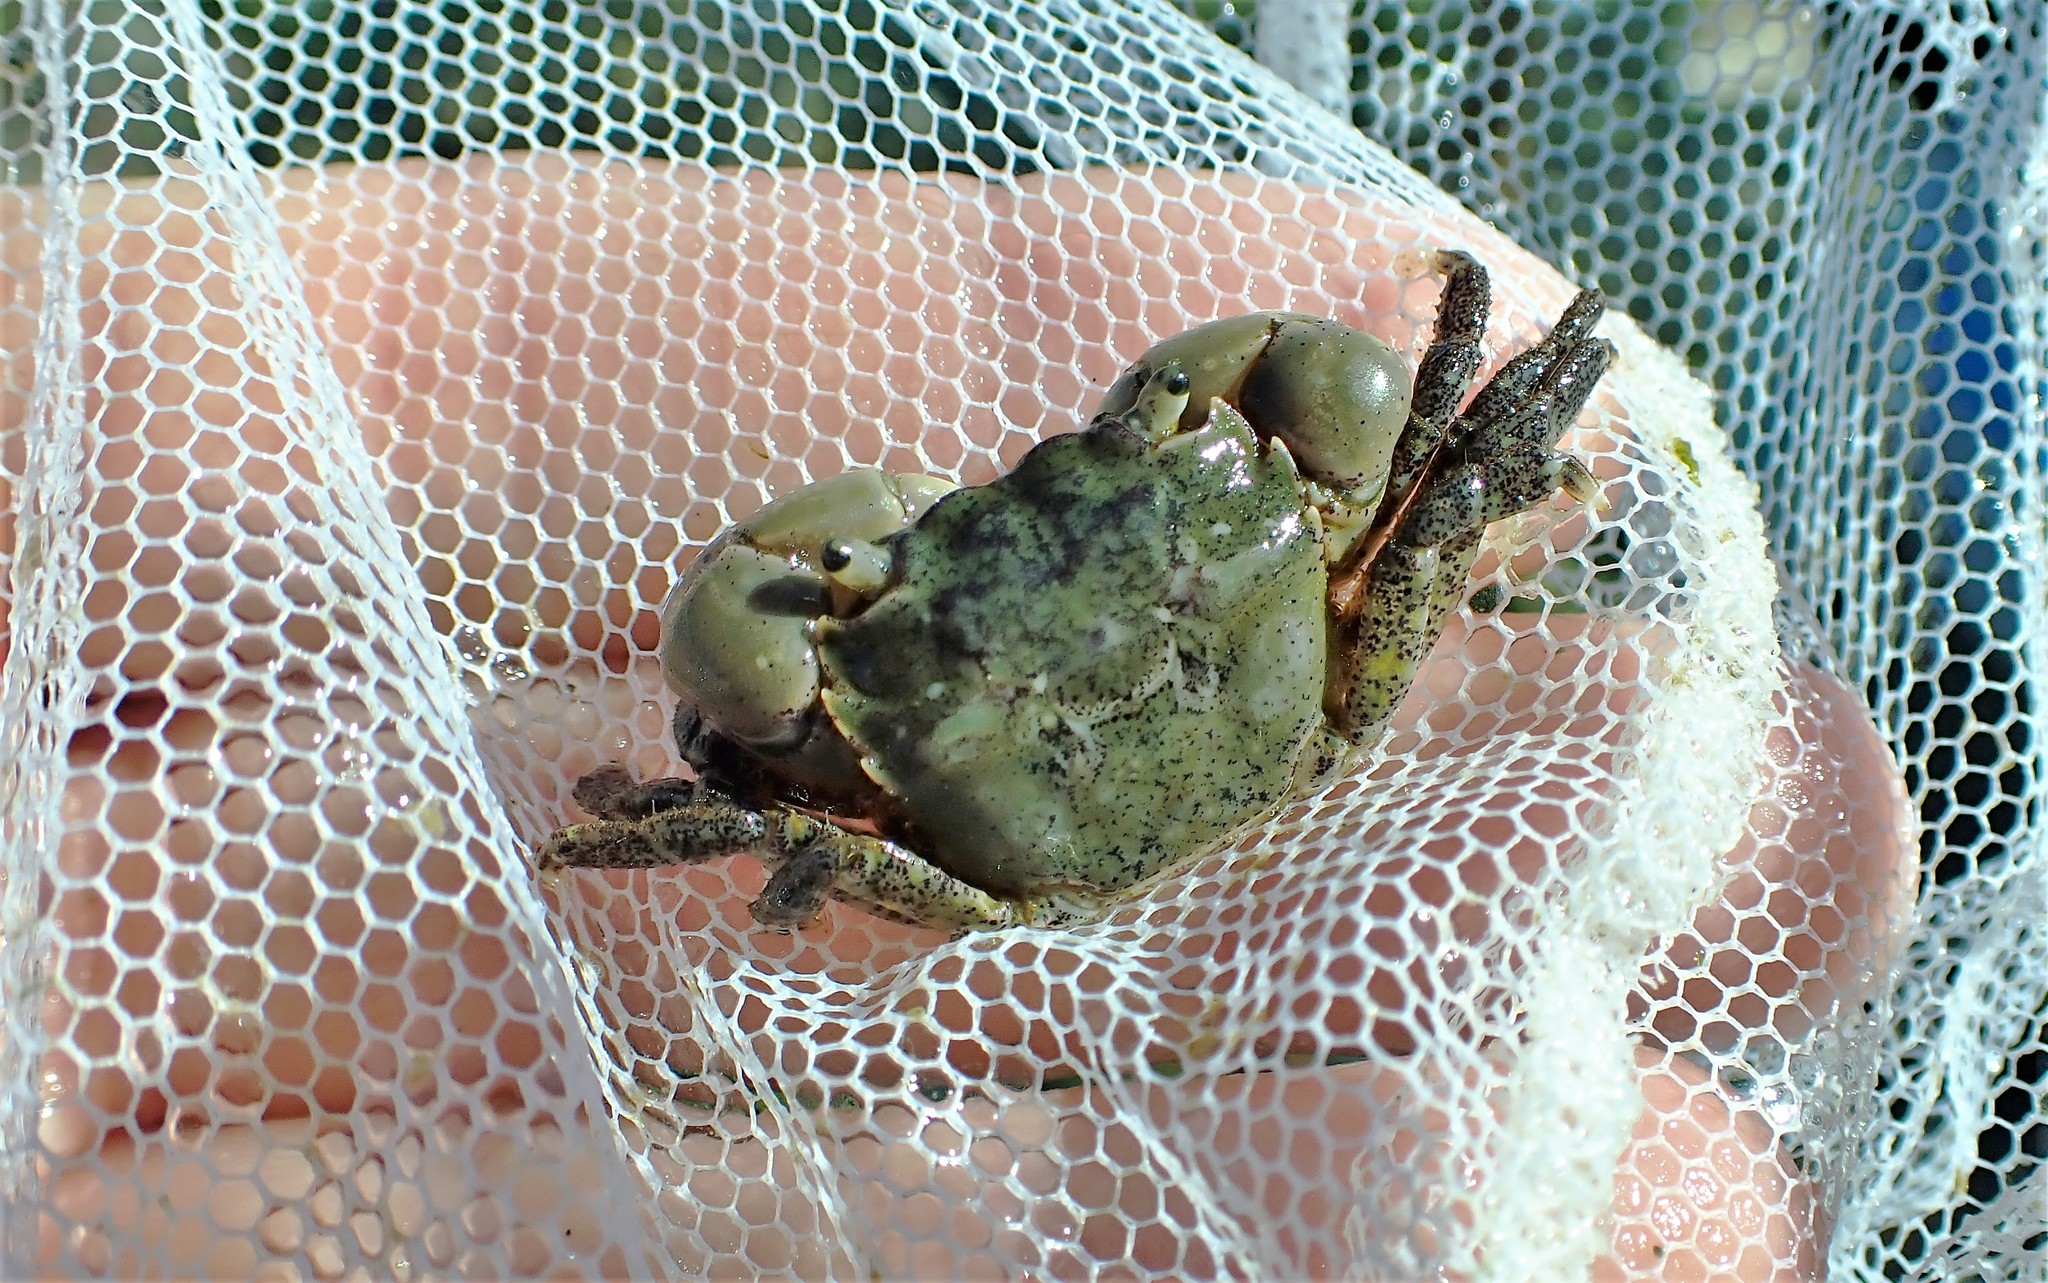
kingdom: Animalia
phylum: Arthropoda
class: Malacostraca
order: Decapoda
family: Varunidae
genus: Hemigrapsus
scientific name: Hemigrapsus oregonensis
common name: Yellow shore crab
